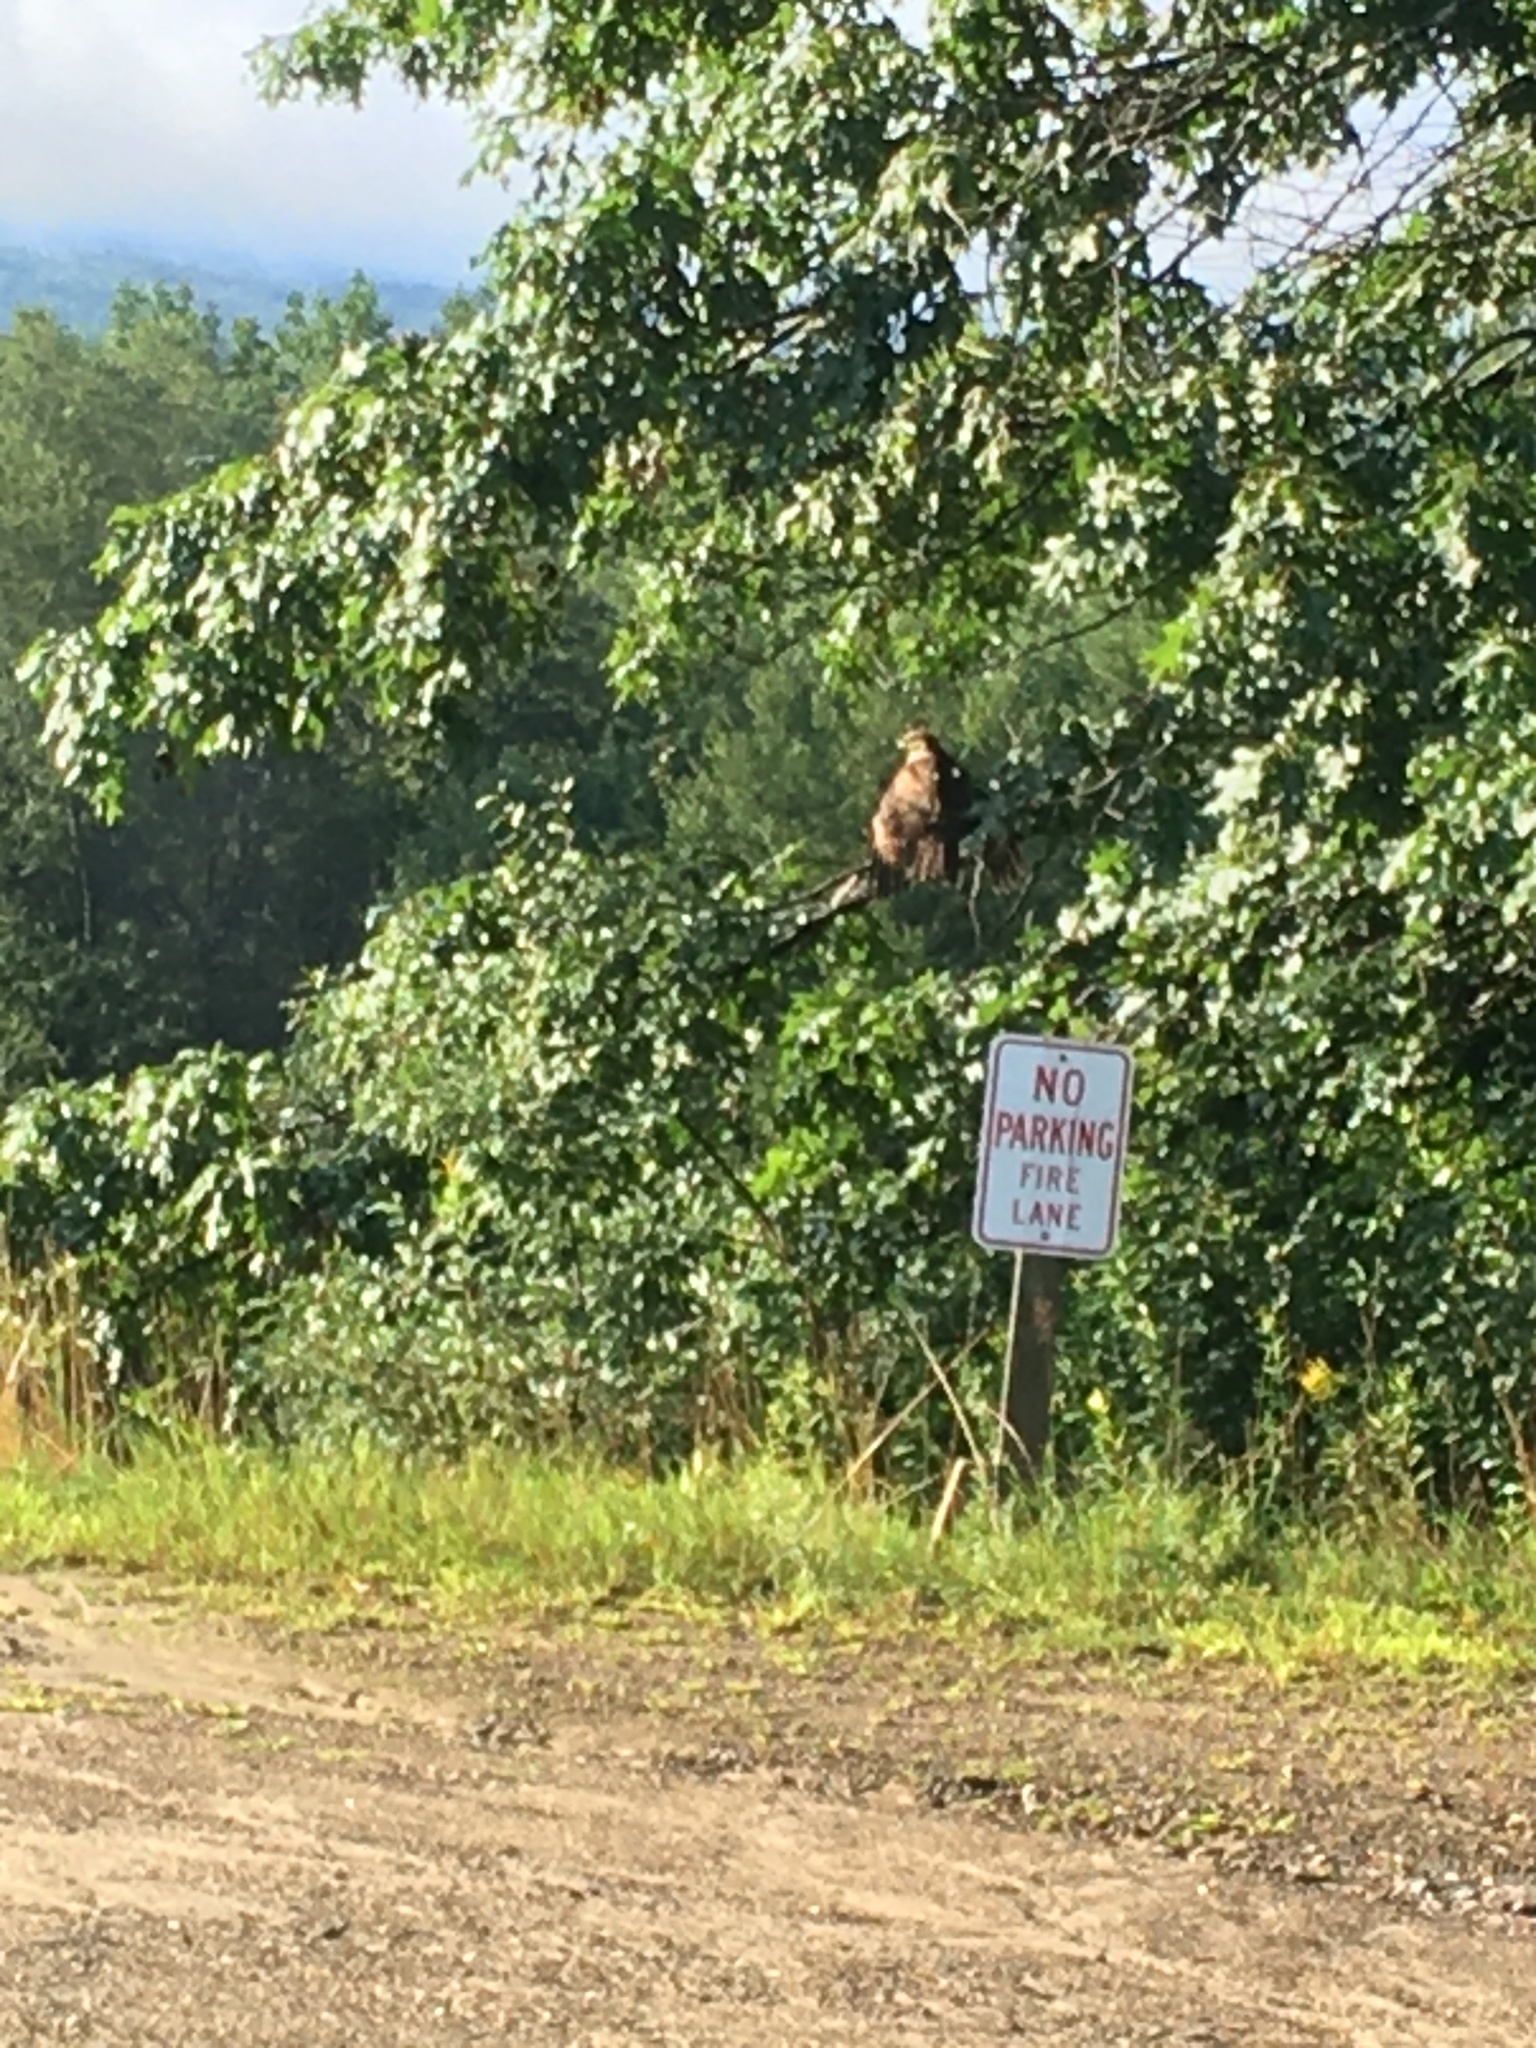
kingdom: Animalia
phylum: Chordata
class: Aves
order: Accipitriformes
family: Accipitridae
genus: Buteo
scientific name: Buteo jamaicensis
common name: Red-tailed hawk
